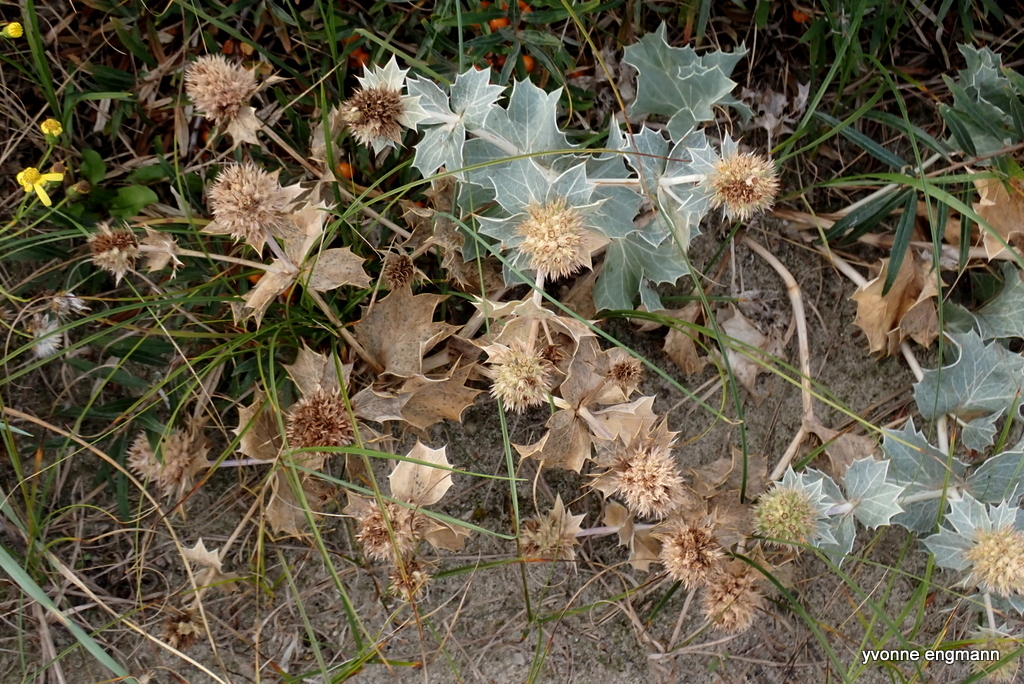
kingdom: Plantae
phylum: Tracheophyta
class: Magnoliopsida
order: Apiales
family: Apiaceae
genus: Eryngium
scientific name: Eryngium maritimum
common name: Sea-holly
